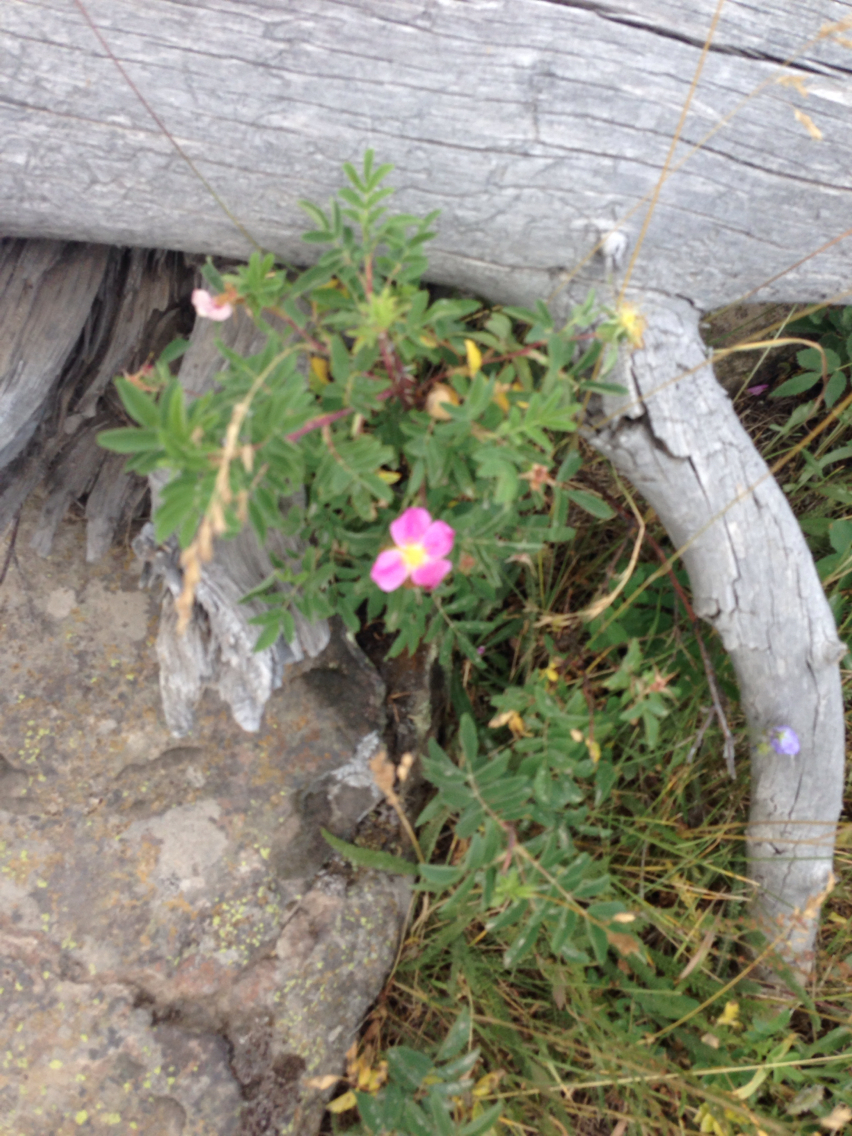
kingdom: Plantae
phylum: Tracheophyta
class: Magnoliopsida
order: Rosales
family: Rosaceae
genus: Rosa
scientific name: Rosa woodsii
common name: Woods's rose
